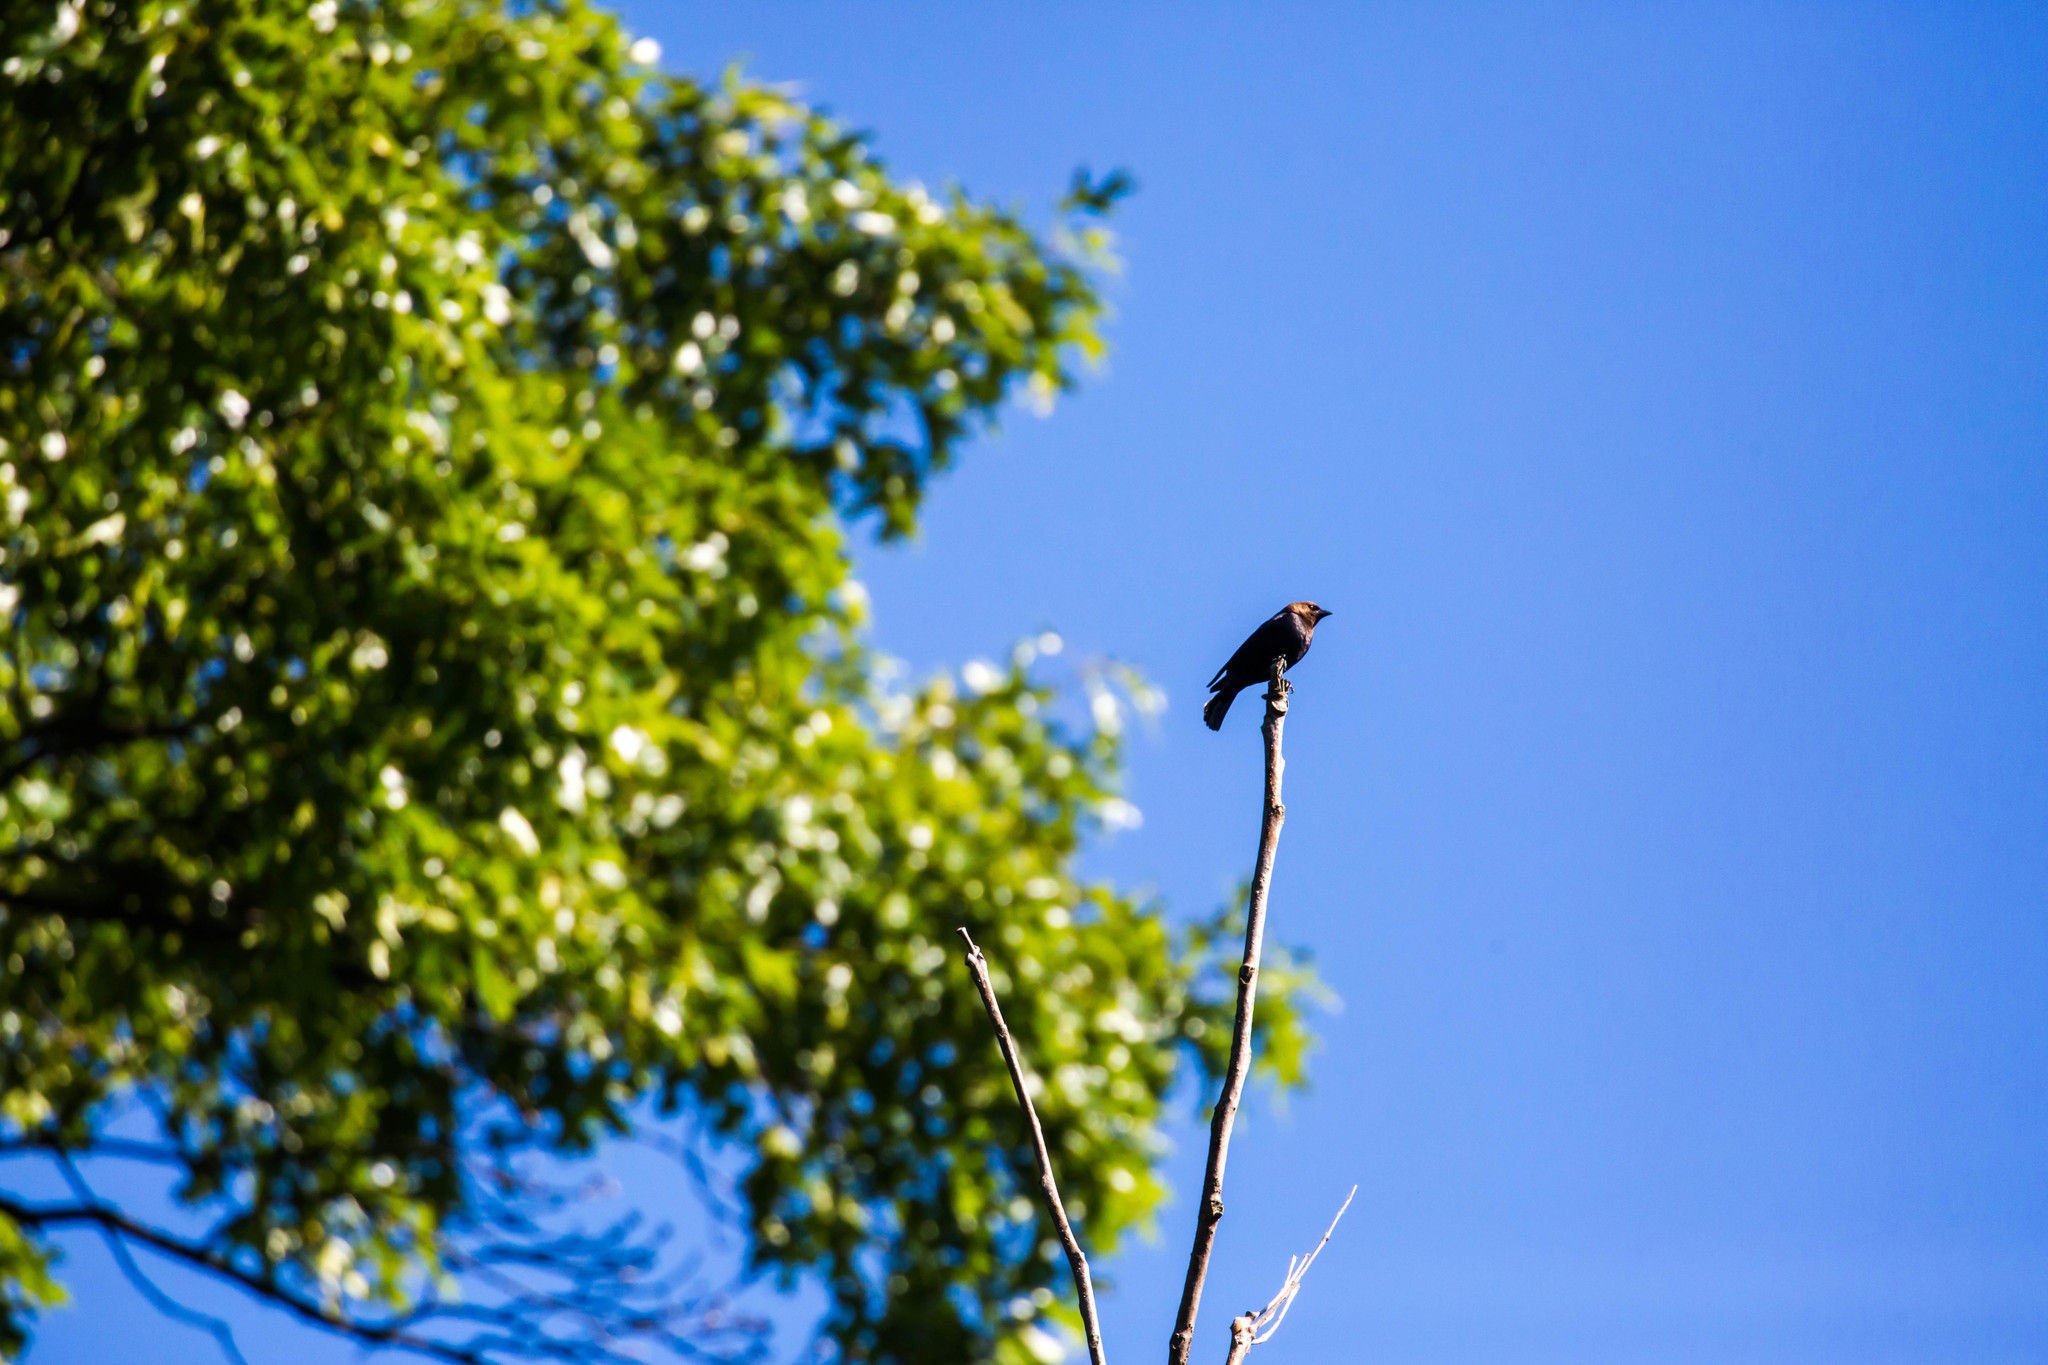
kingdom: Animalia
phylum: Chordata
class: Aves
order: Passeriformes
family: Icteridae
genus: Molothrus
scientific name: Molothrus ater
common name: Brown-headed cowbird
